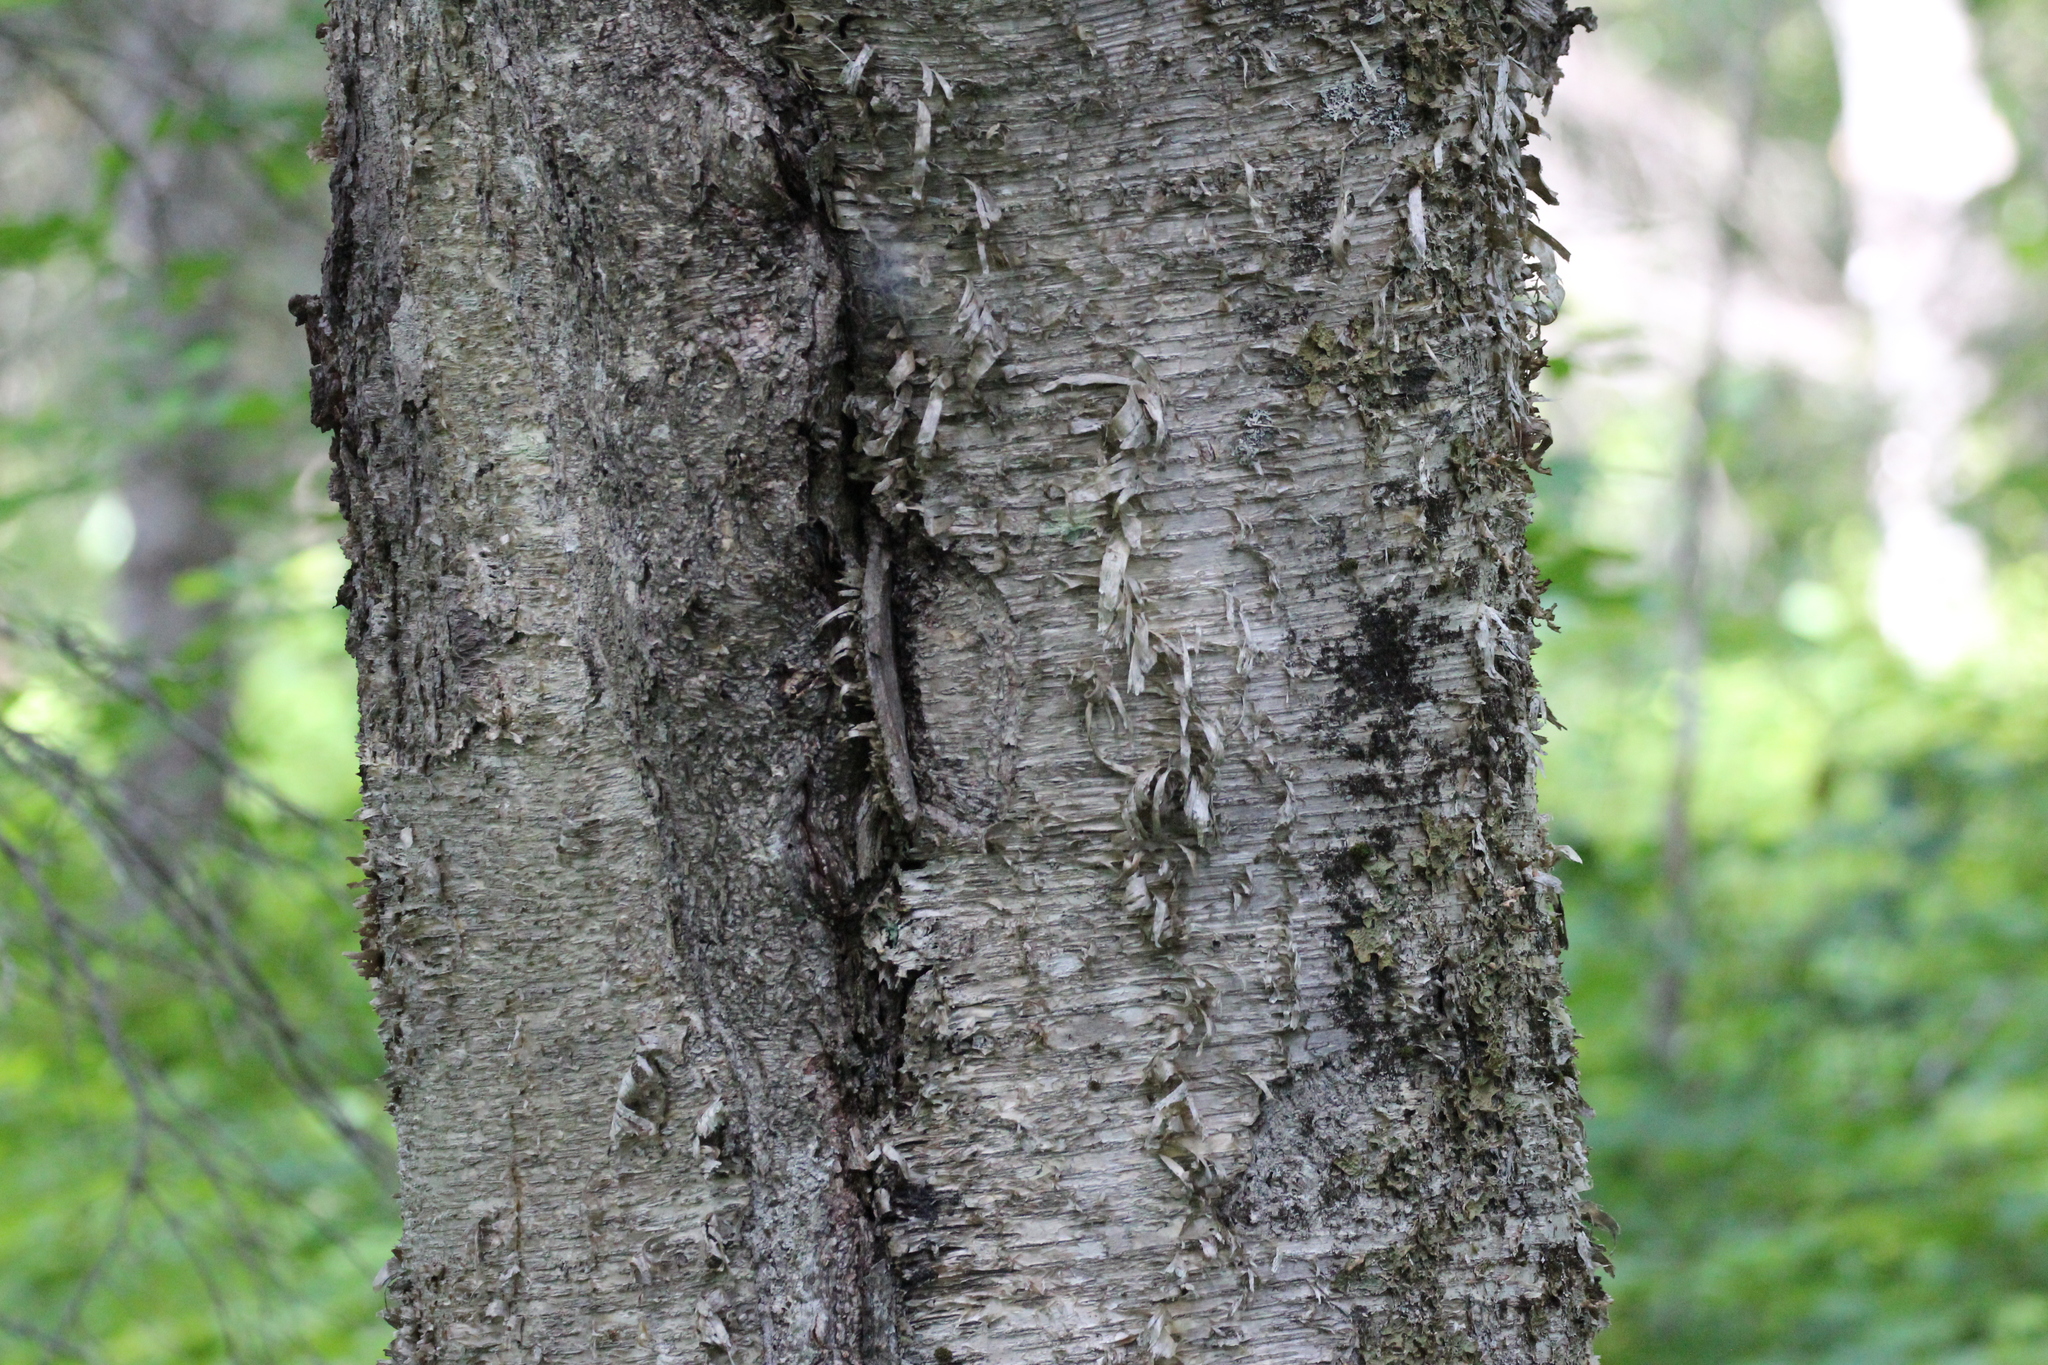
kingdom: Plantae
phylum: Tracheophyta
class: Magnoliopsida
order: Fagales
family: Betulaceae
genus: Betula
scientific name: Betula alleghaniensis
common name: Yellow birch
